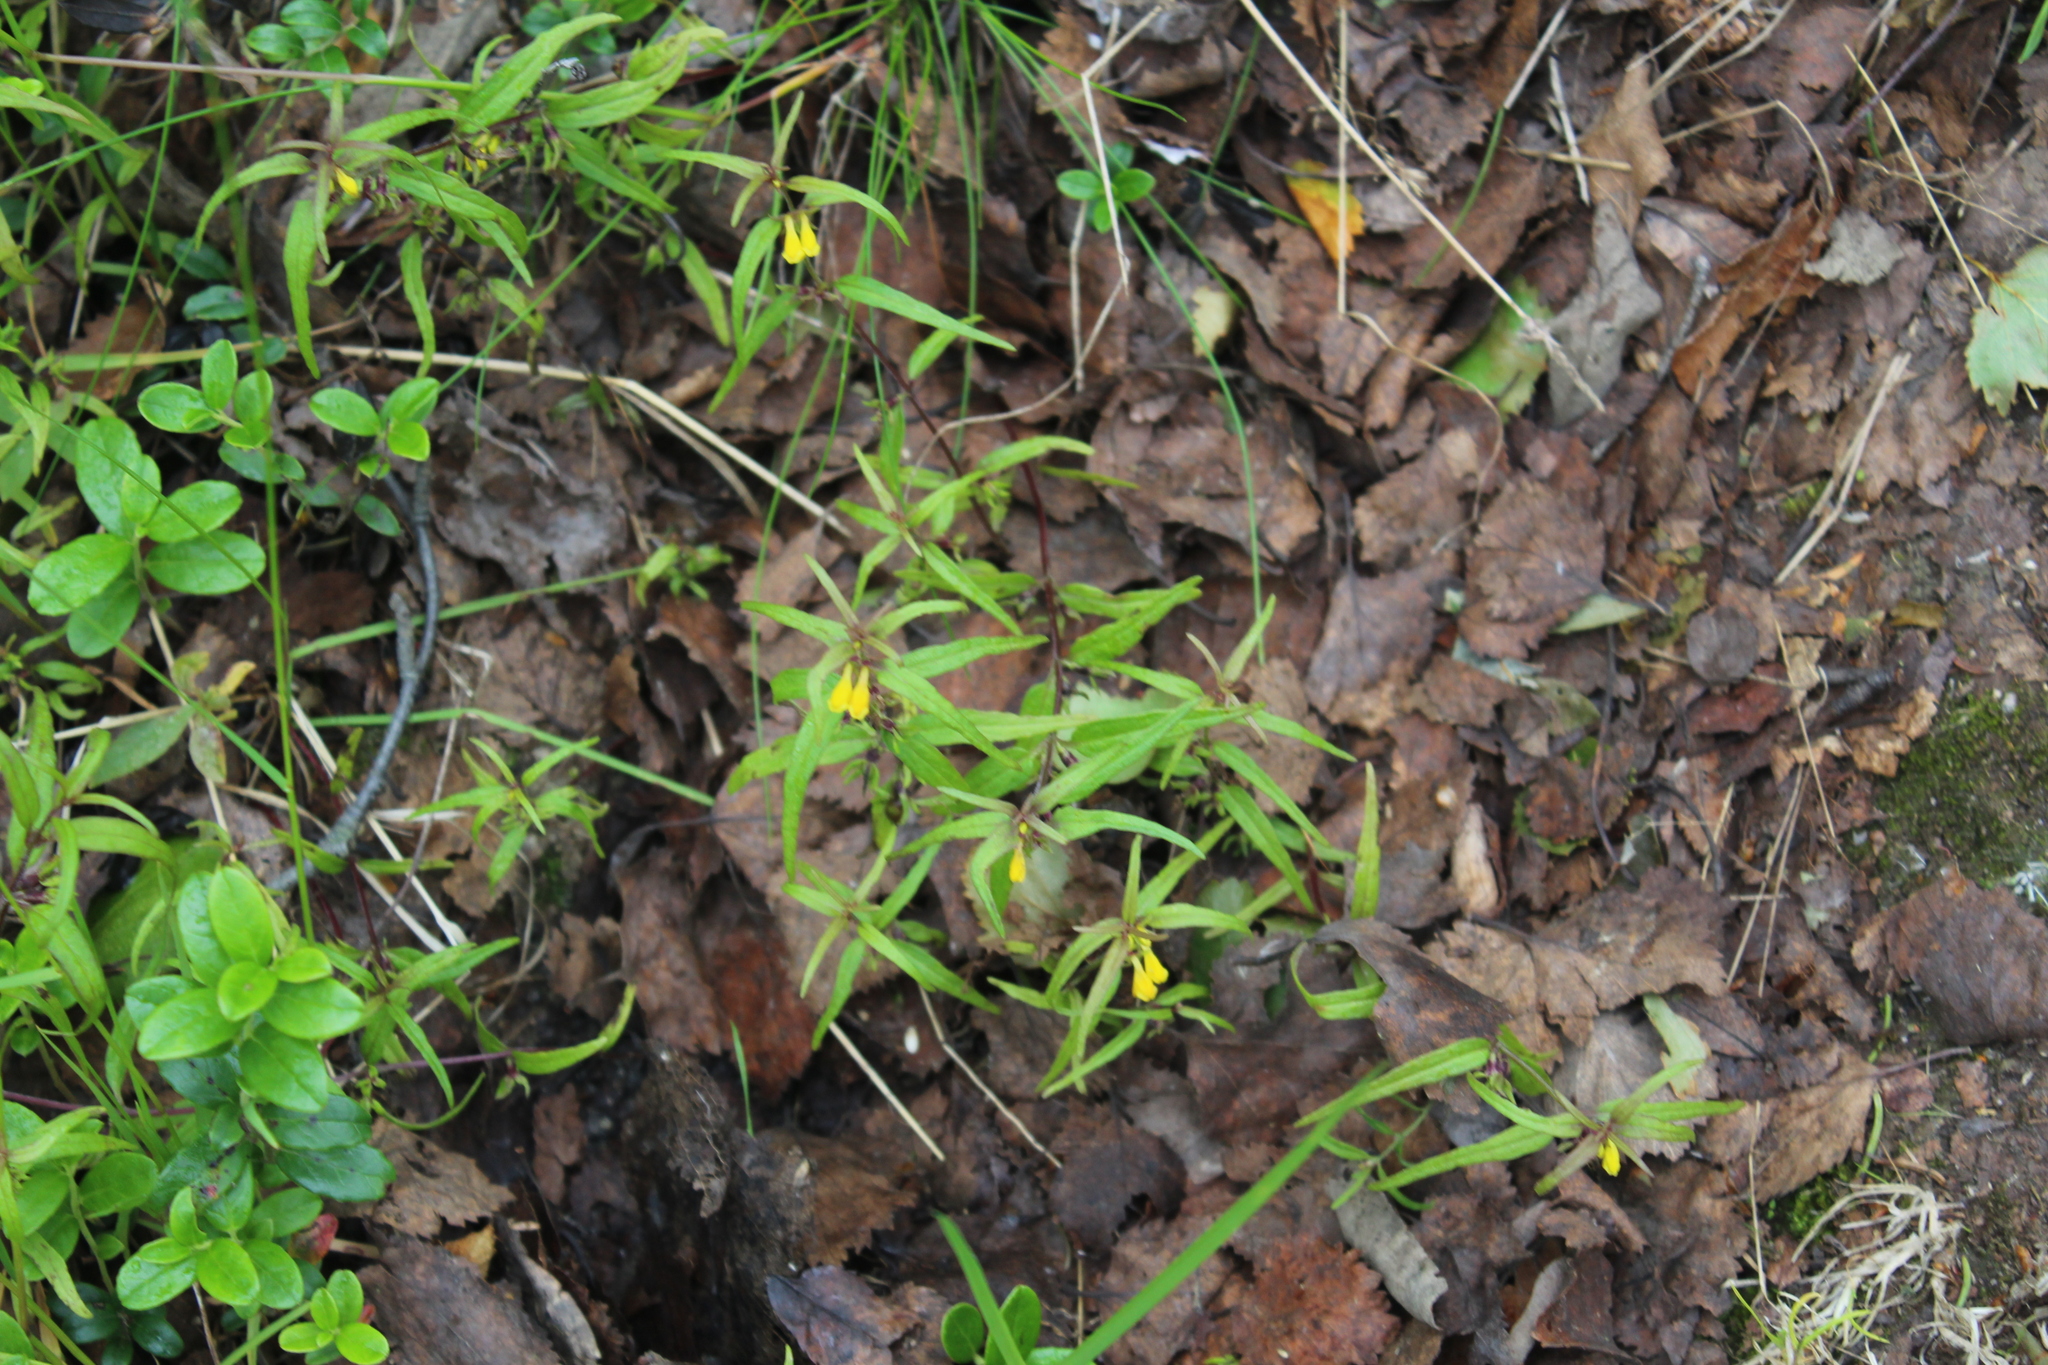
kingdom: Plantae
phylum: Tracheophyta
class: Magnoliopsida
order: Lamiales
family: Orobanchaceae
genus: Melampyrum
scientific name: Melampyrum sylvaticum
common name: Small cow-wheat
